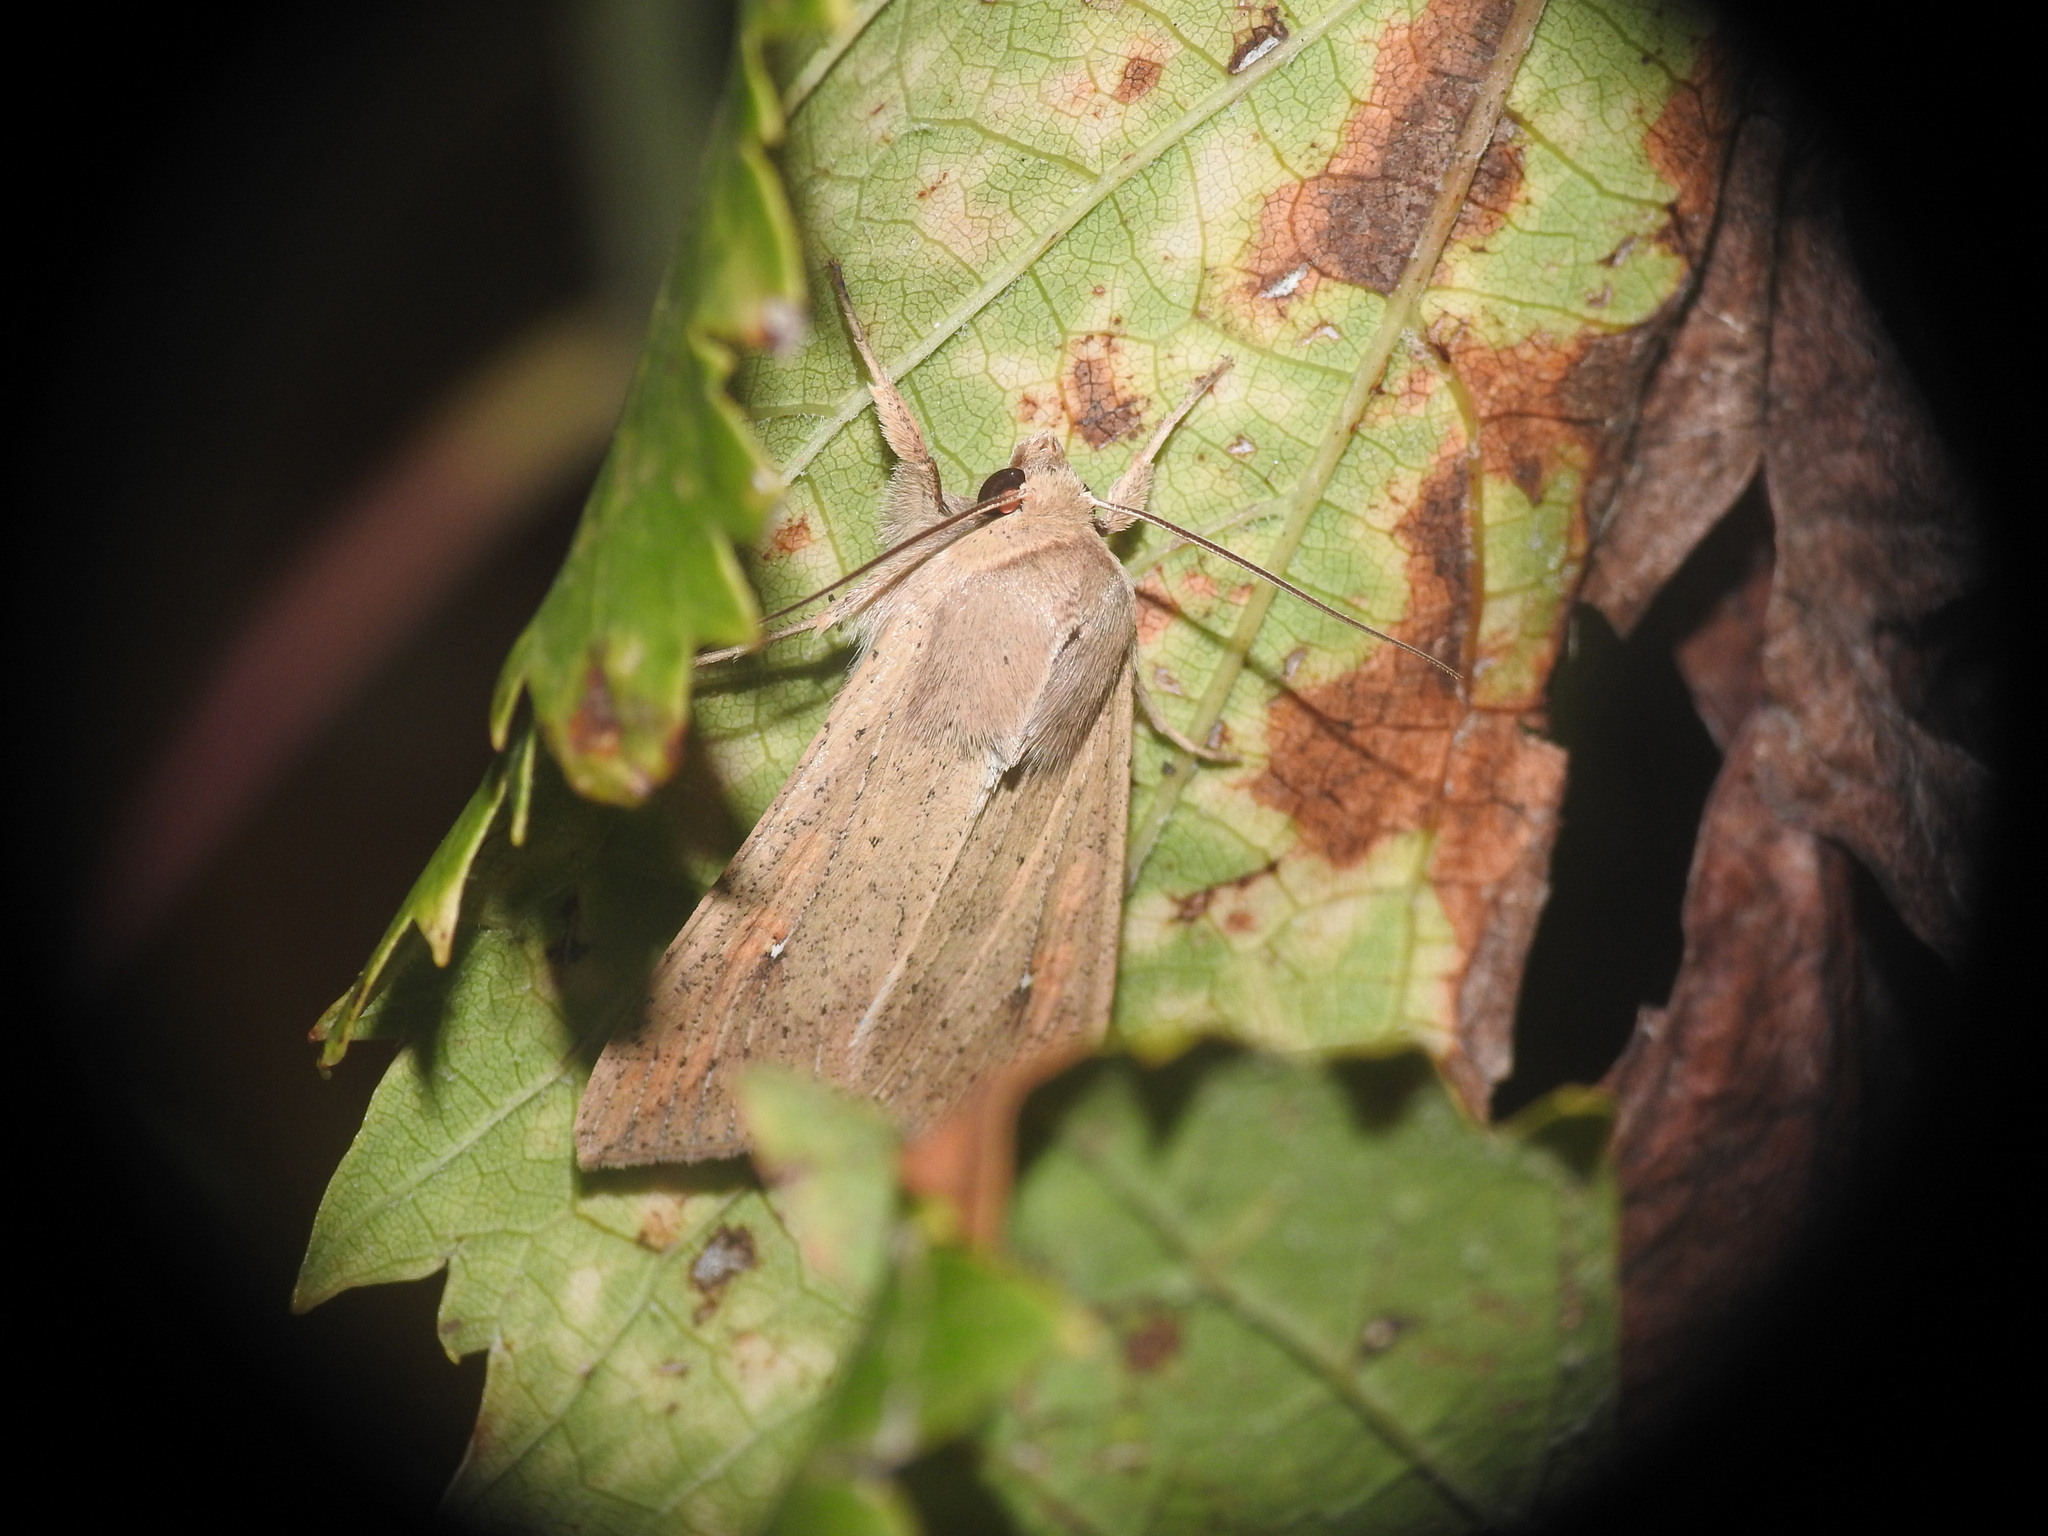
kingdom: Animalia
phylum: Arthropoda
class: Insecta
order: Lepidoptera
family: Noctuidae
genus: Mythimna
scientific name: Mythimna unipuncta
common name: White-speck
